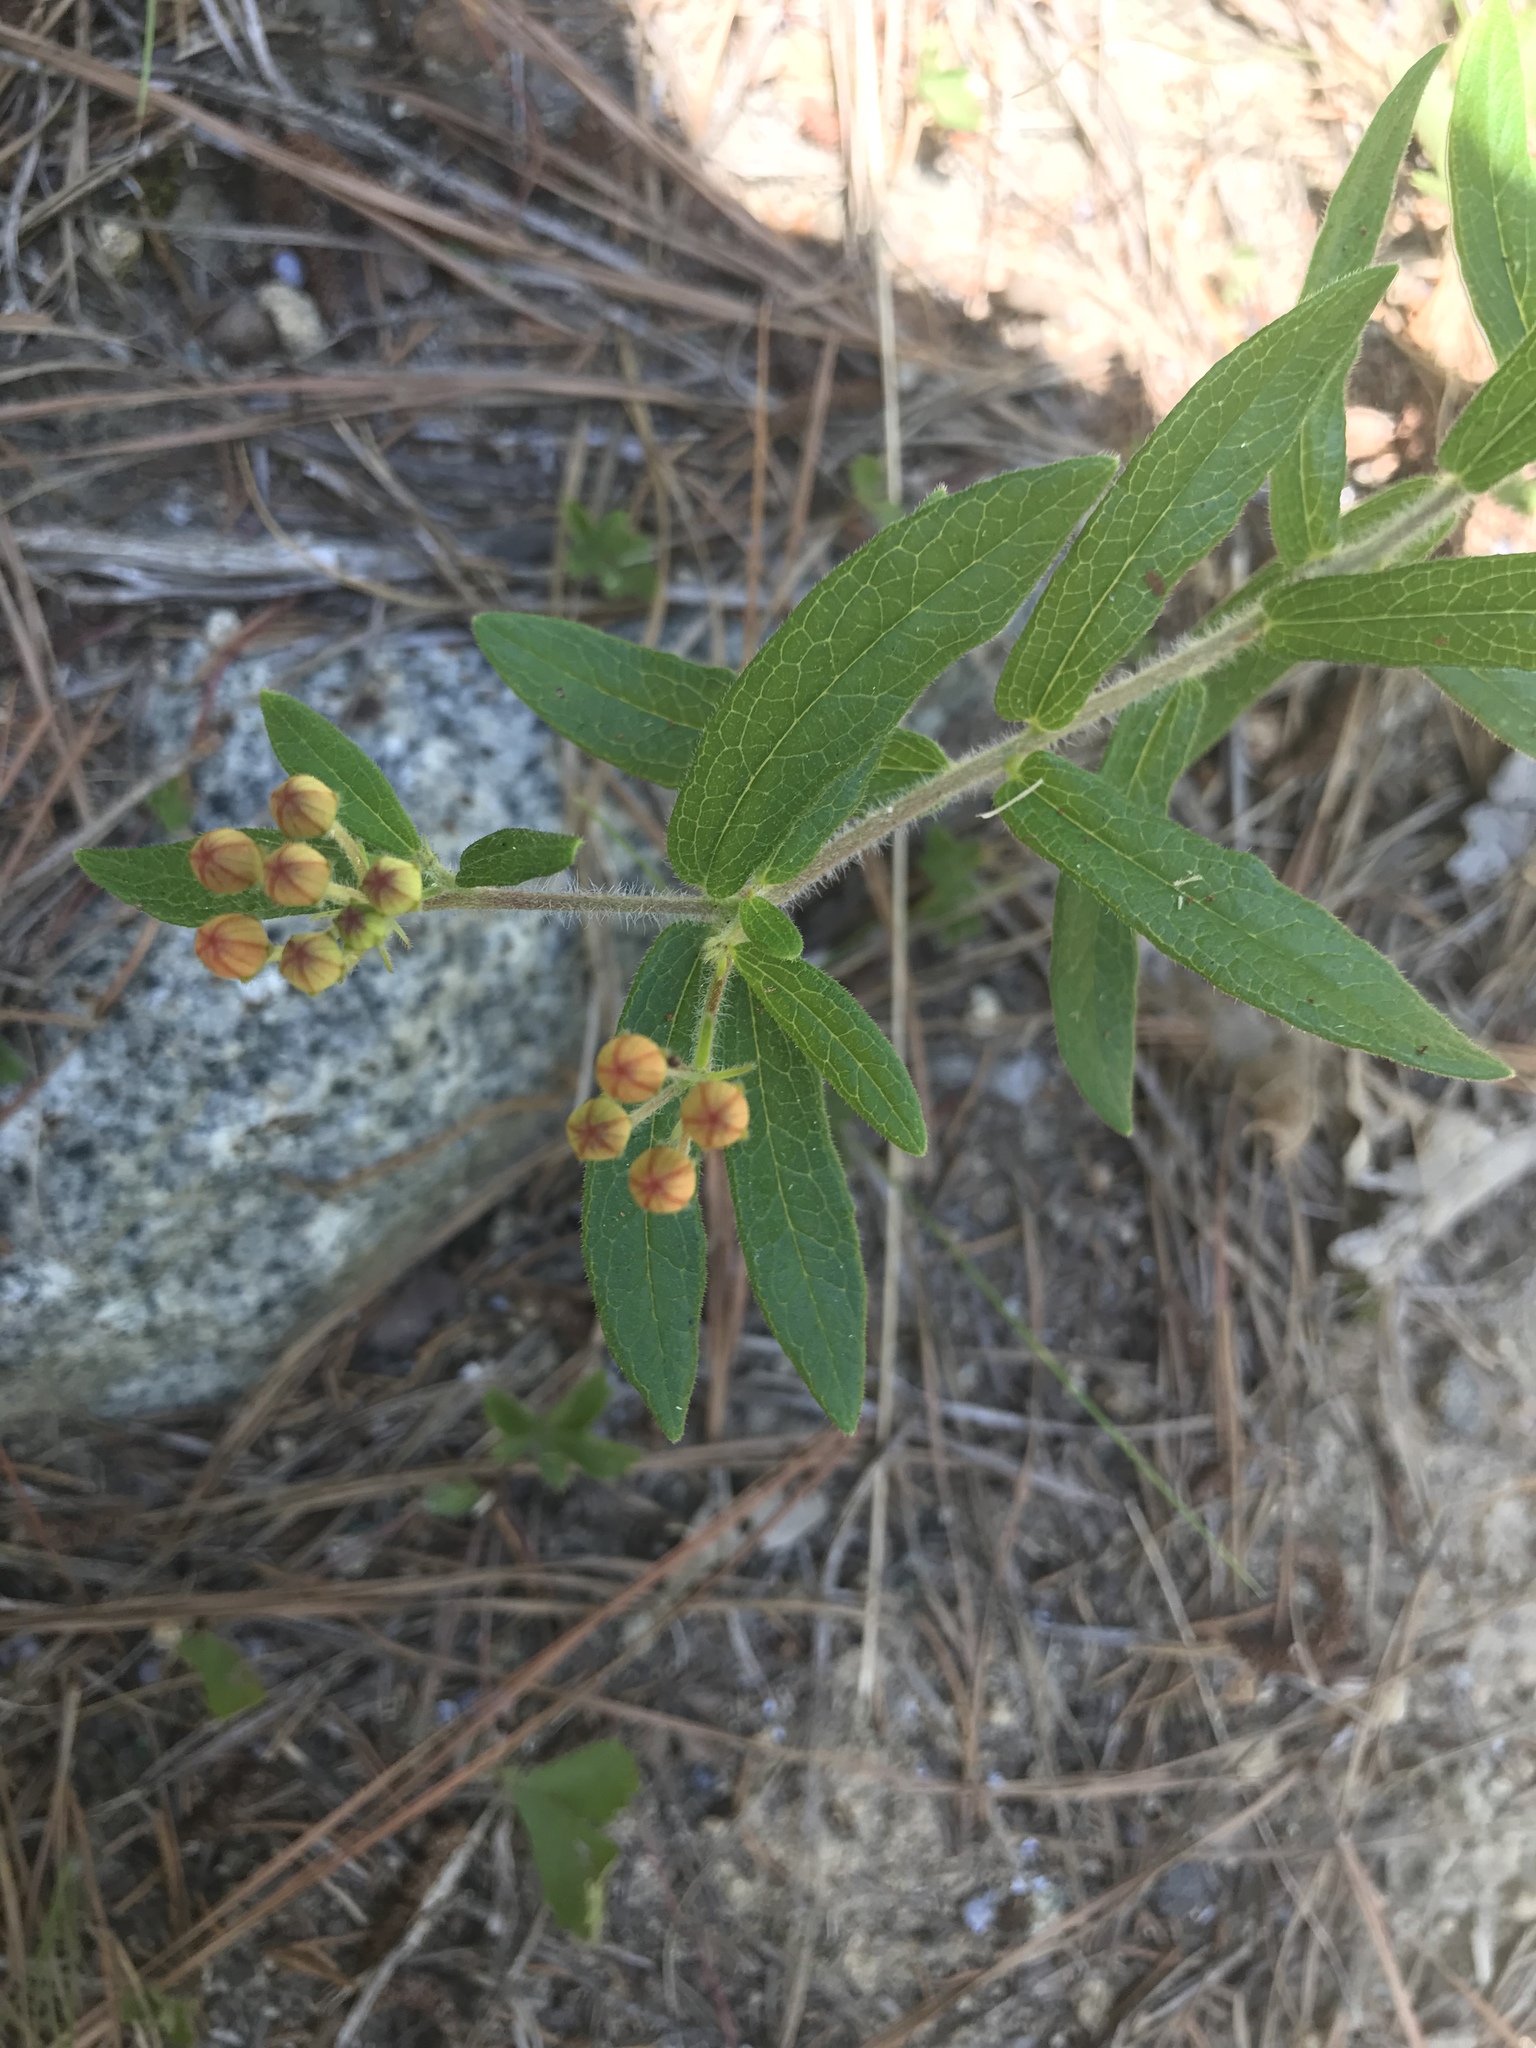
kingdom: Plantae
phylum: Tracheophyta
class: Magnoliopsida
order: Gentianales
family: Apocynaceae
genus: Asclepias
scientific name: Asclepias tuberosa
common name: Butterfly milkweed
